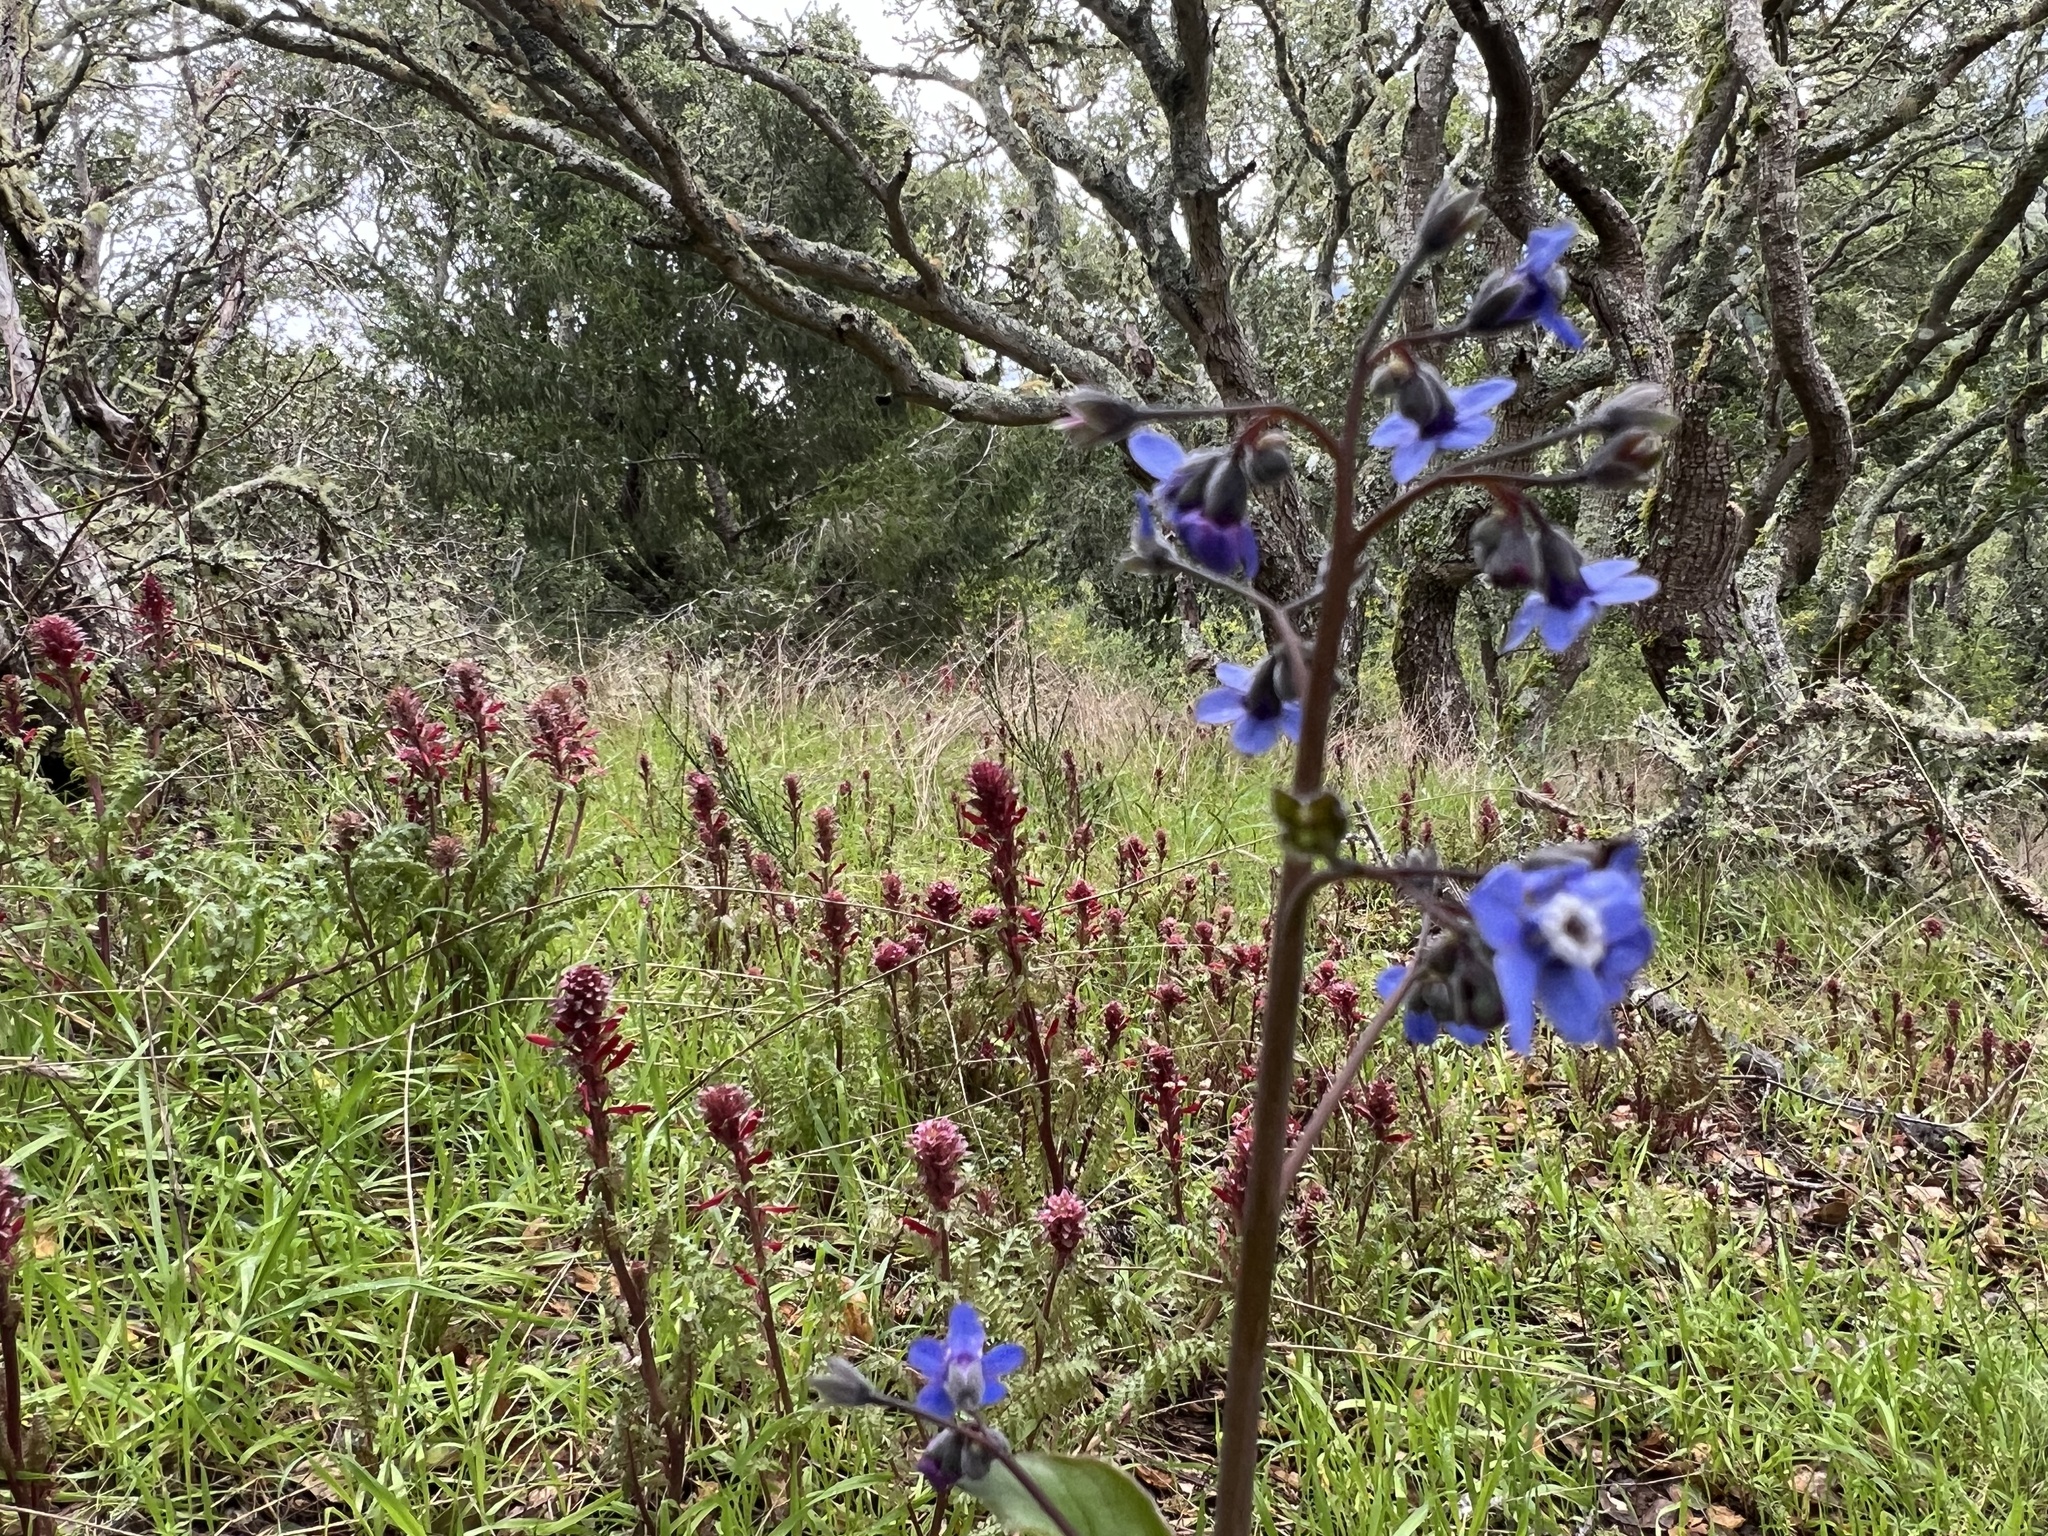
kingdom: Plantae
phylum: Tracheophyta
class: Magnoliopsida
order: Boraginales
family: Boraginaceae
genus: Adelinia
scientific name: Adelinia grande
